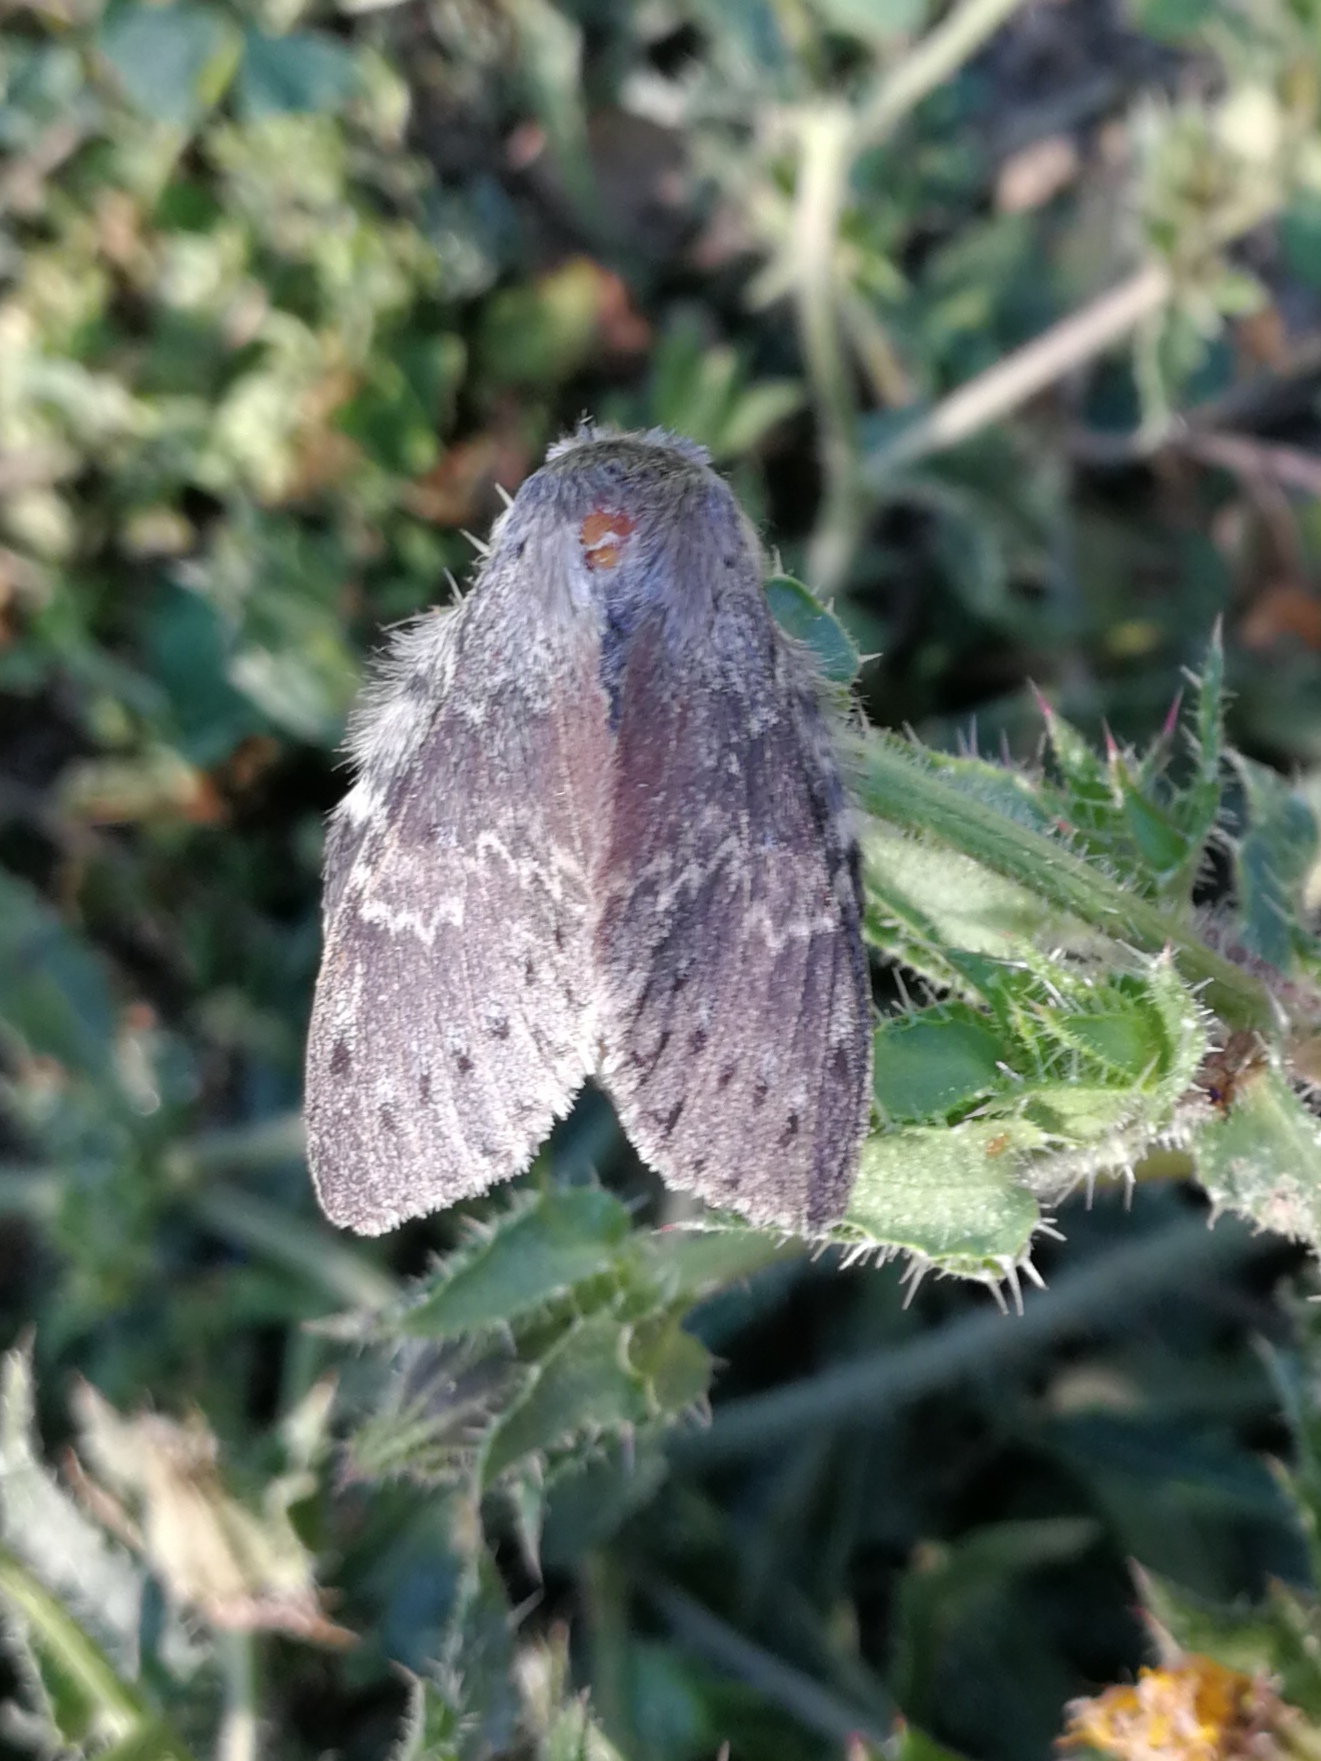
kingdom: Animalia
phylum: Arthropoda
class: Insecta
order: Lepidoptera
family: Notodontidae
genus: Stauropus
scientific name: Stauropus fagi
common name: Lobster moth
